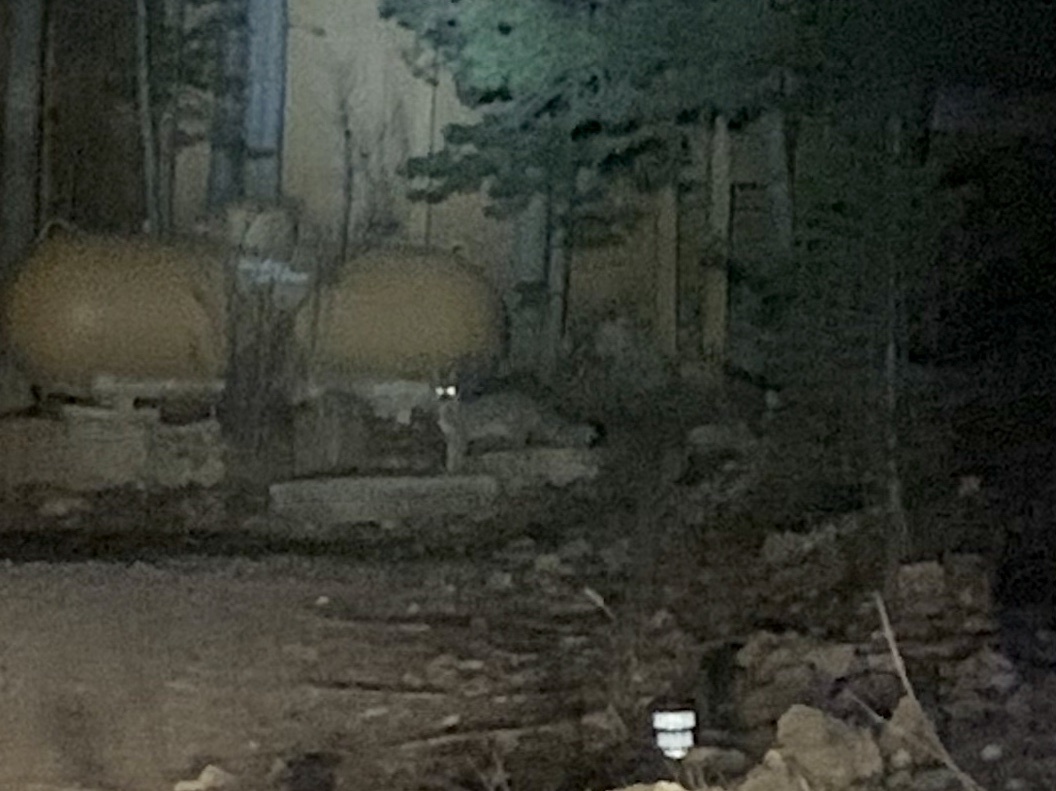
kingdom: Animalia
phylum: Chordata
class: Mammalia
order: Carnivora
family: Canidae
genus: Urocyon
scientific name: Urocyon cinereoargenteus
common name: Gray fox
